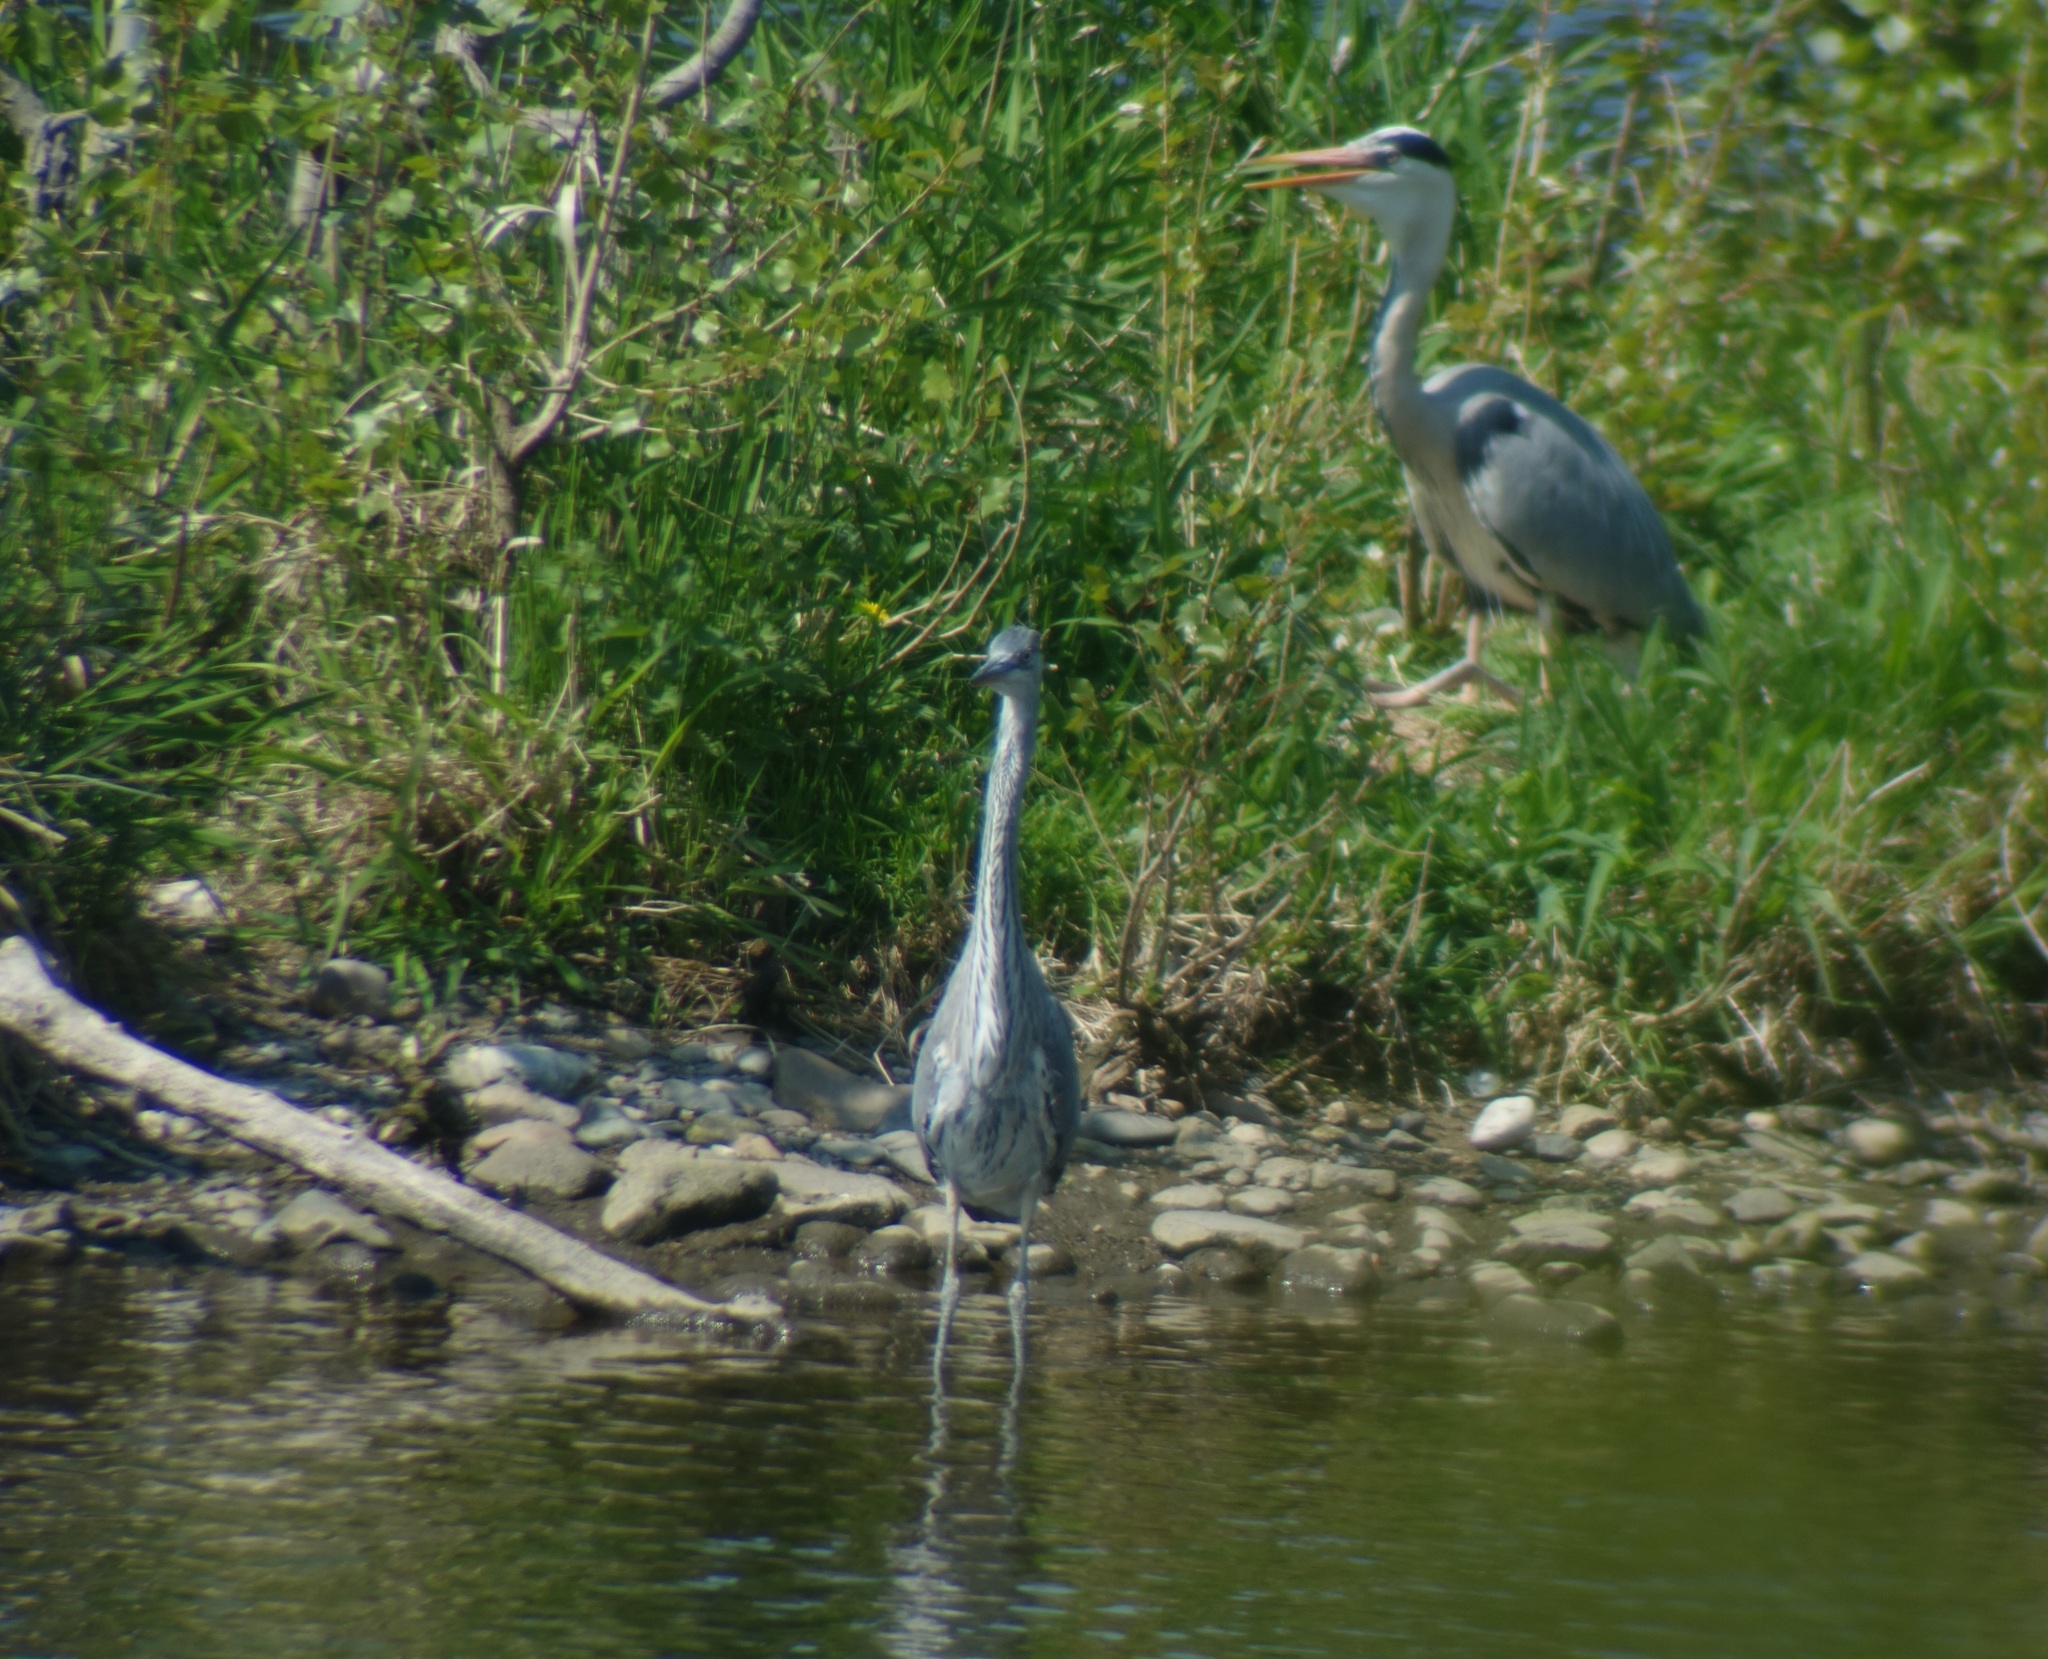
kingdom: Animalia
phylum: Chordata
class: Aves
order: Pelecaniformes
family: Ardeidae
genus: Ardea
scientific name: Ardea cinerea
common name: Grey heron
